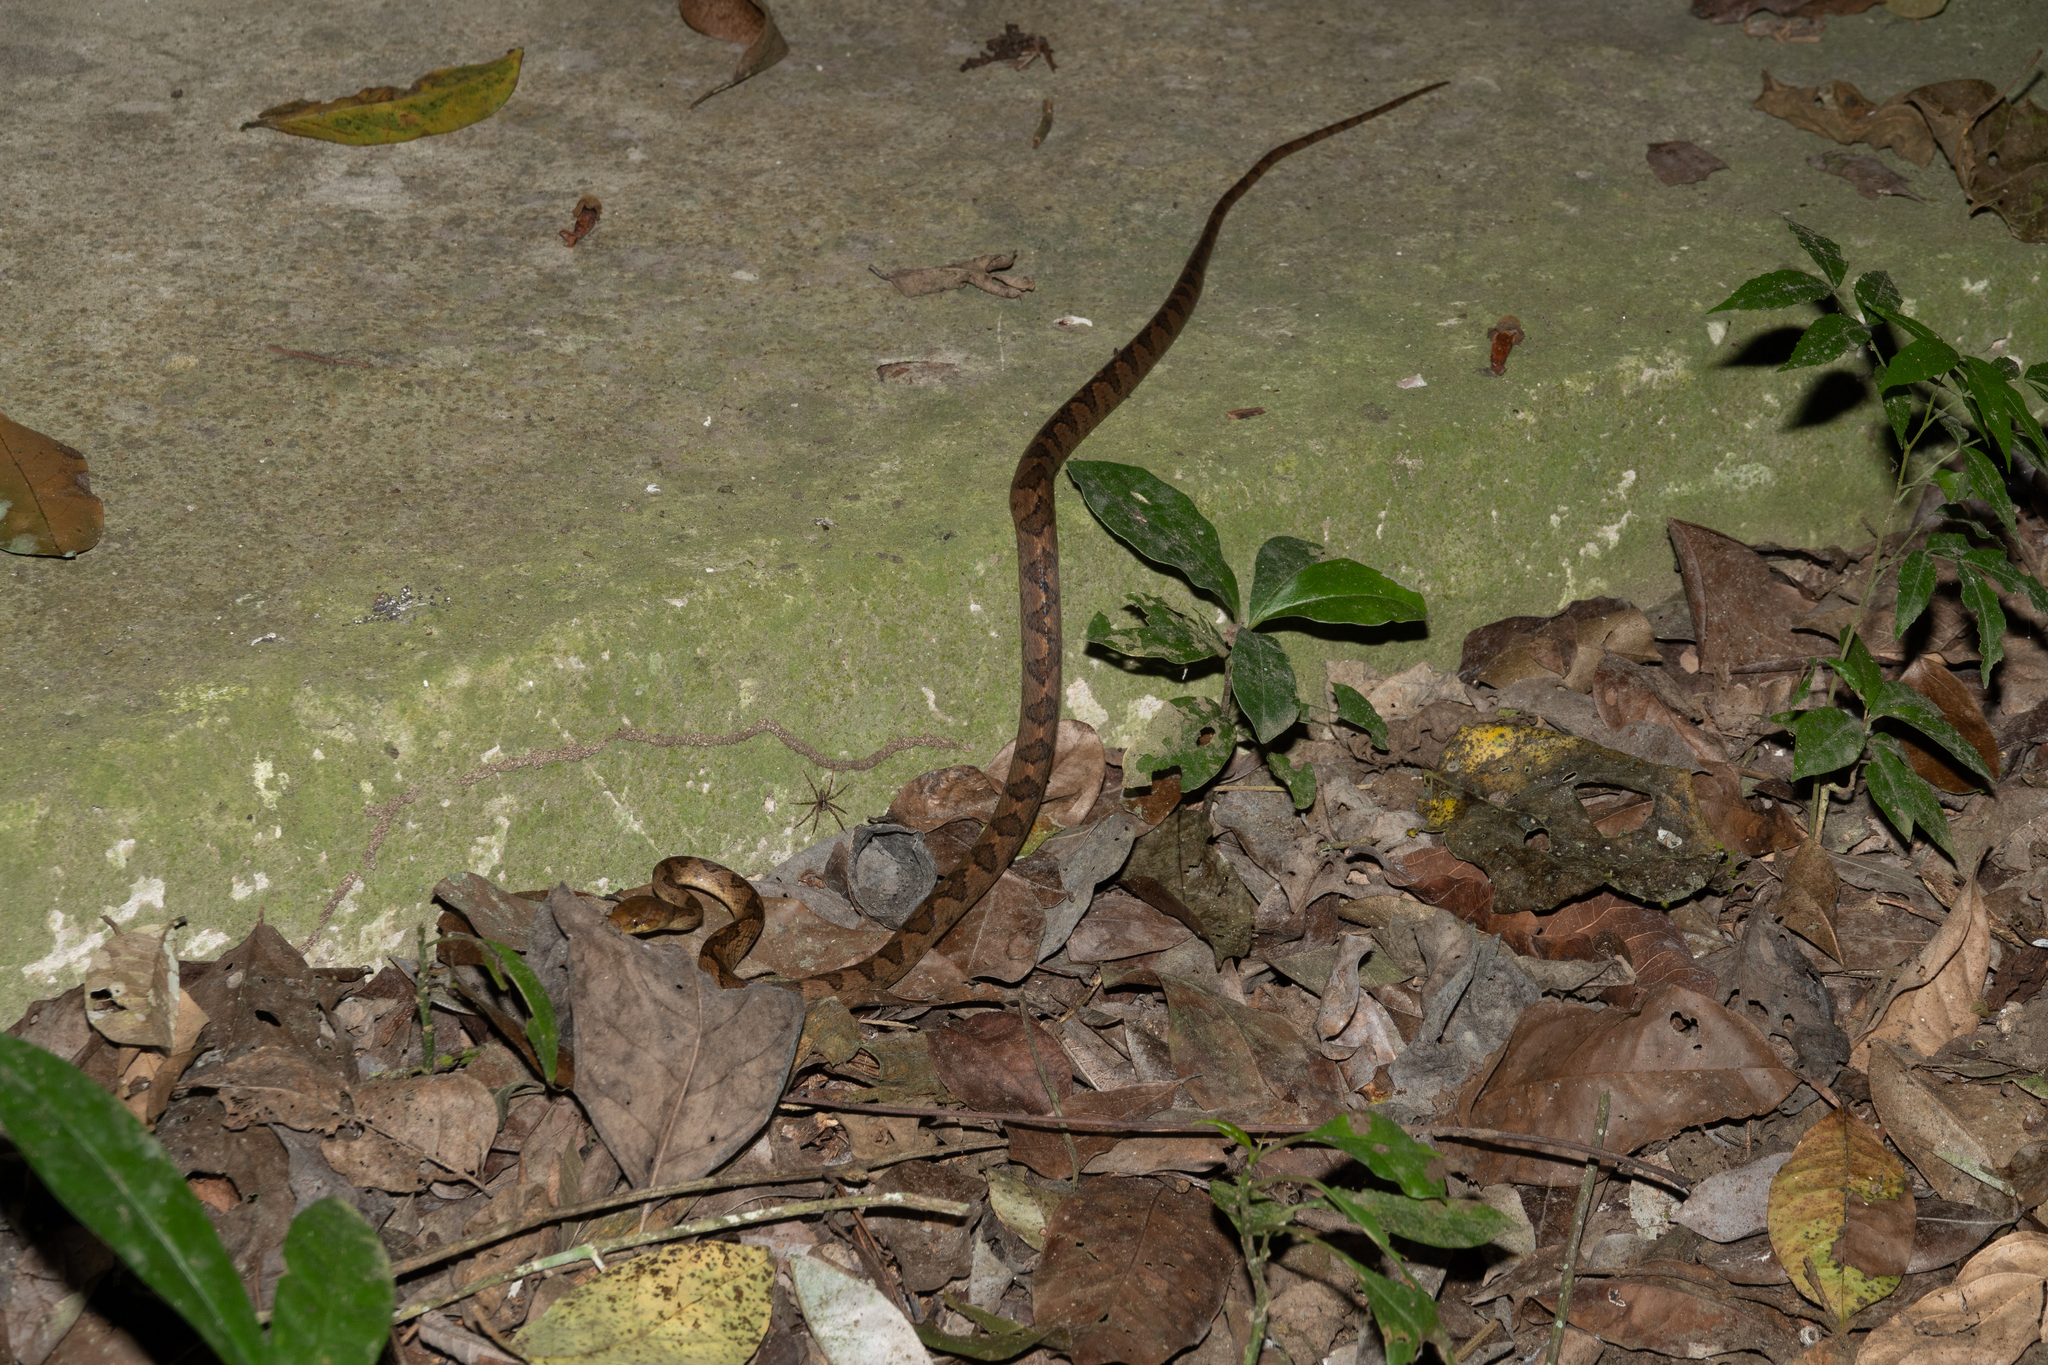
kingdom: Animalia
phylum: Chordata
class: Squamata
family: Colubridae
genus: Leptodeira
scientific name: Leptodeira ornata
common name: Northern cat-eyed snake
